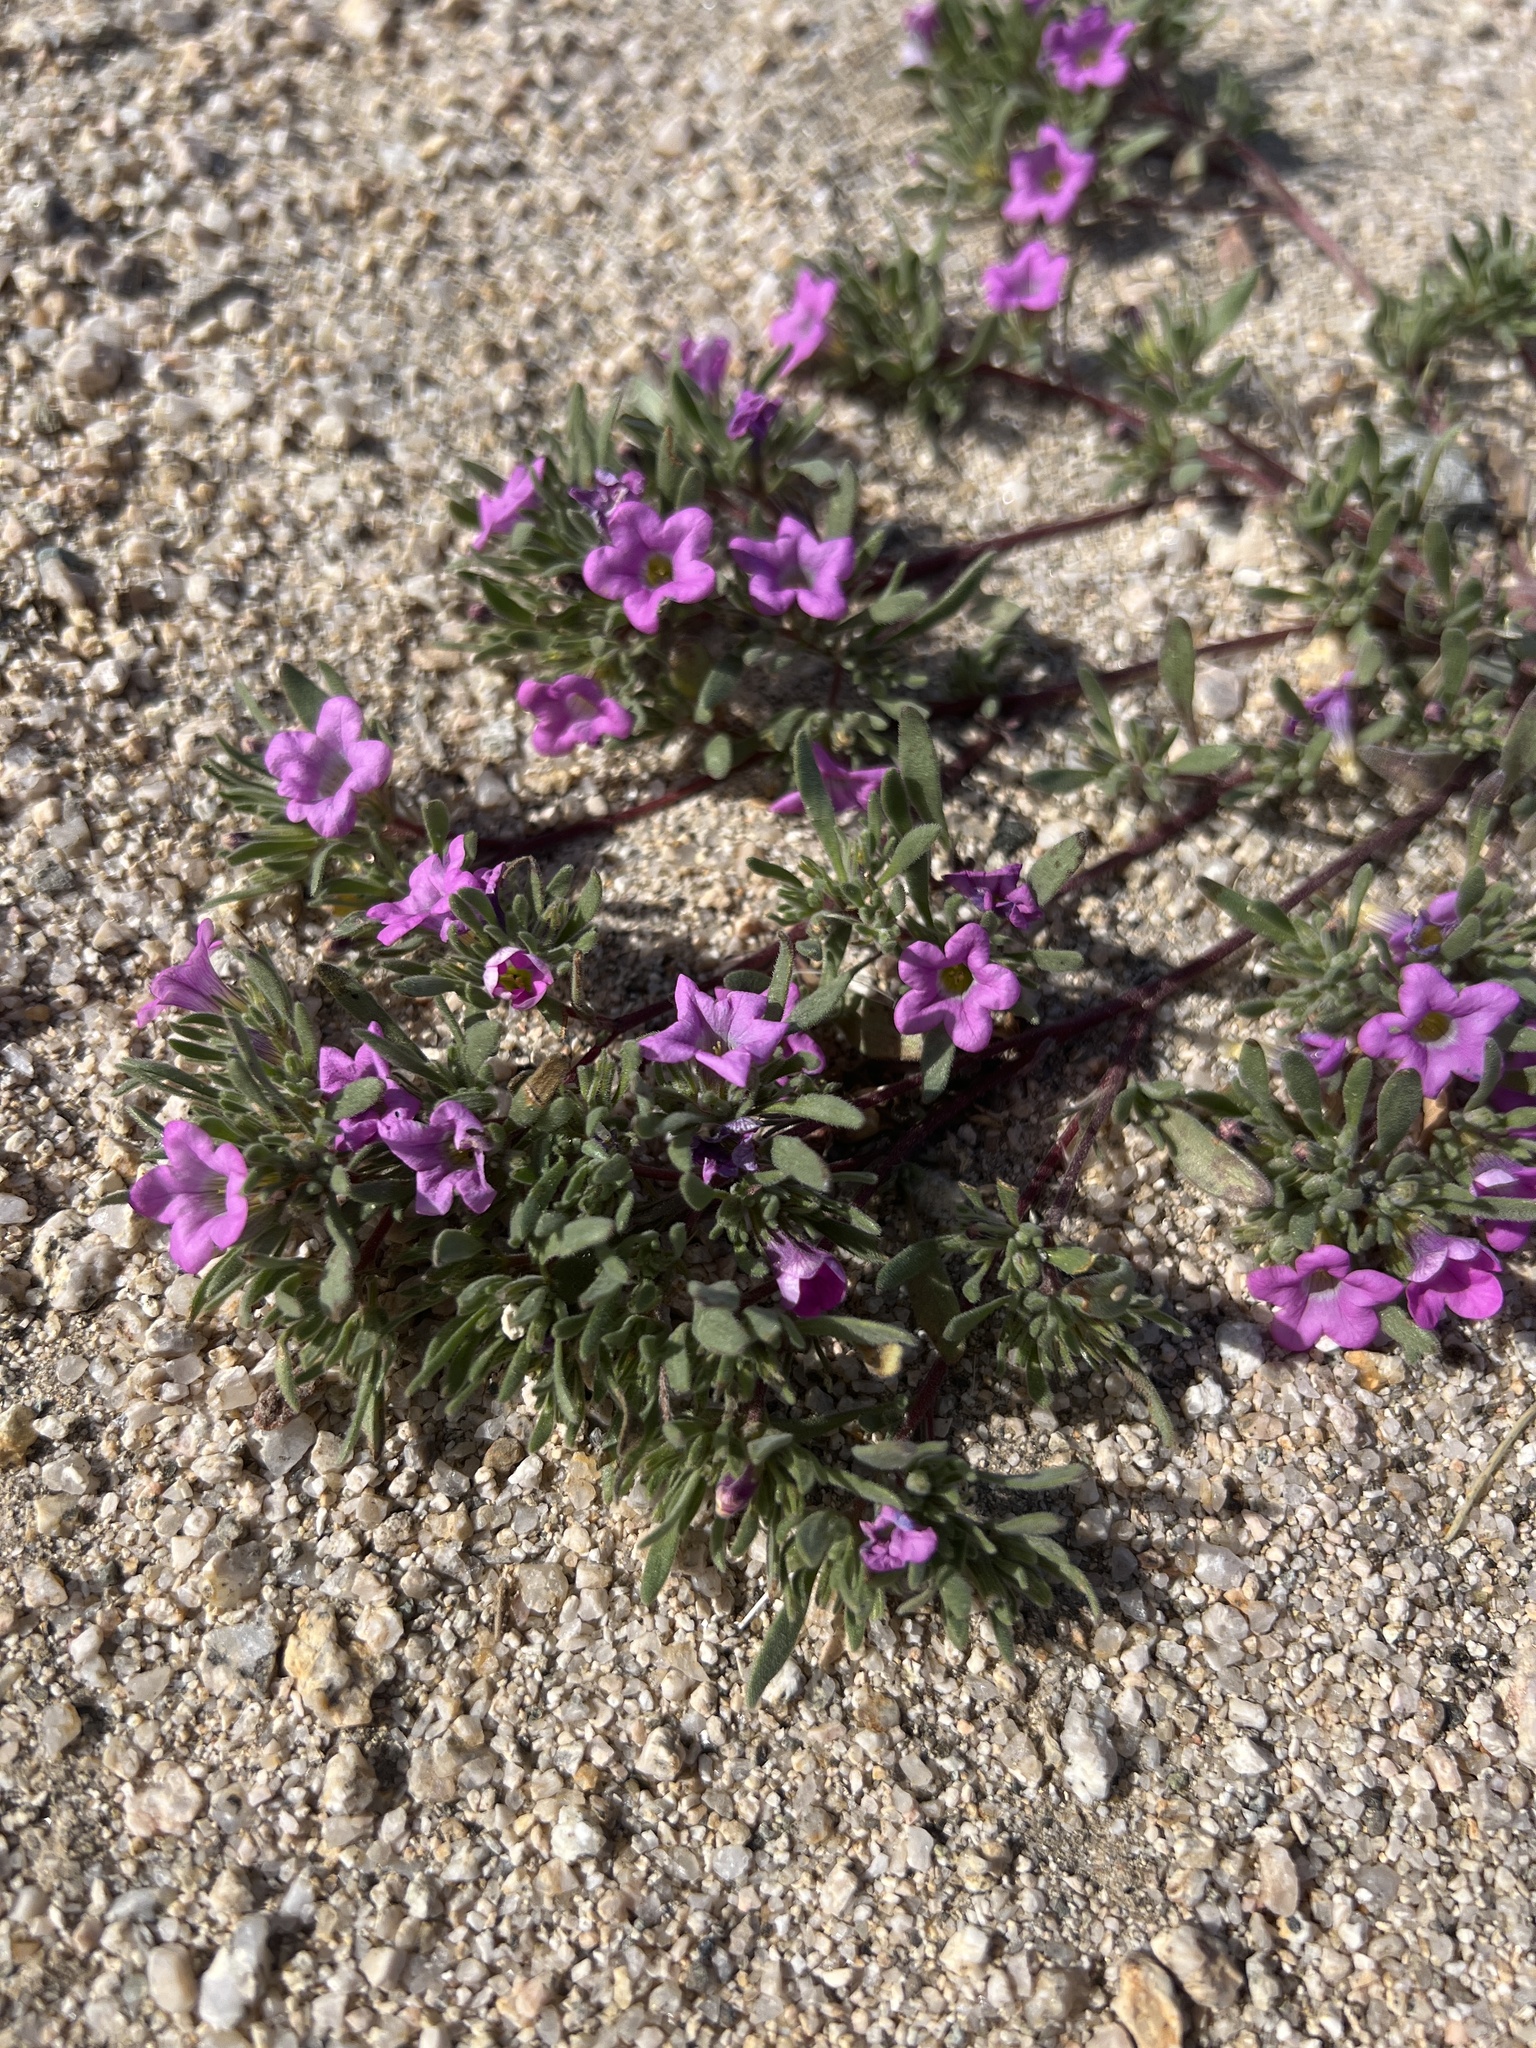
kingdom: Plantae
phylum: Tracheophyta
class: Magnoliopsida
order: Boraginales
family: Namaceae
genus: Nama
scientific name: Nama demissa
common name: Leafy nama
